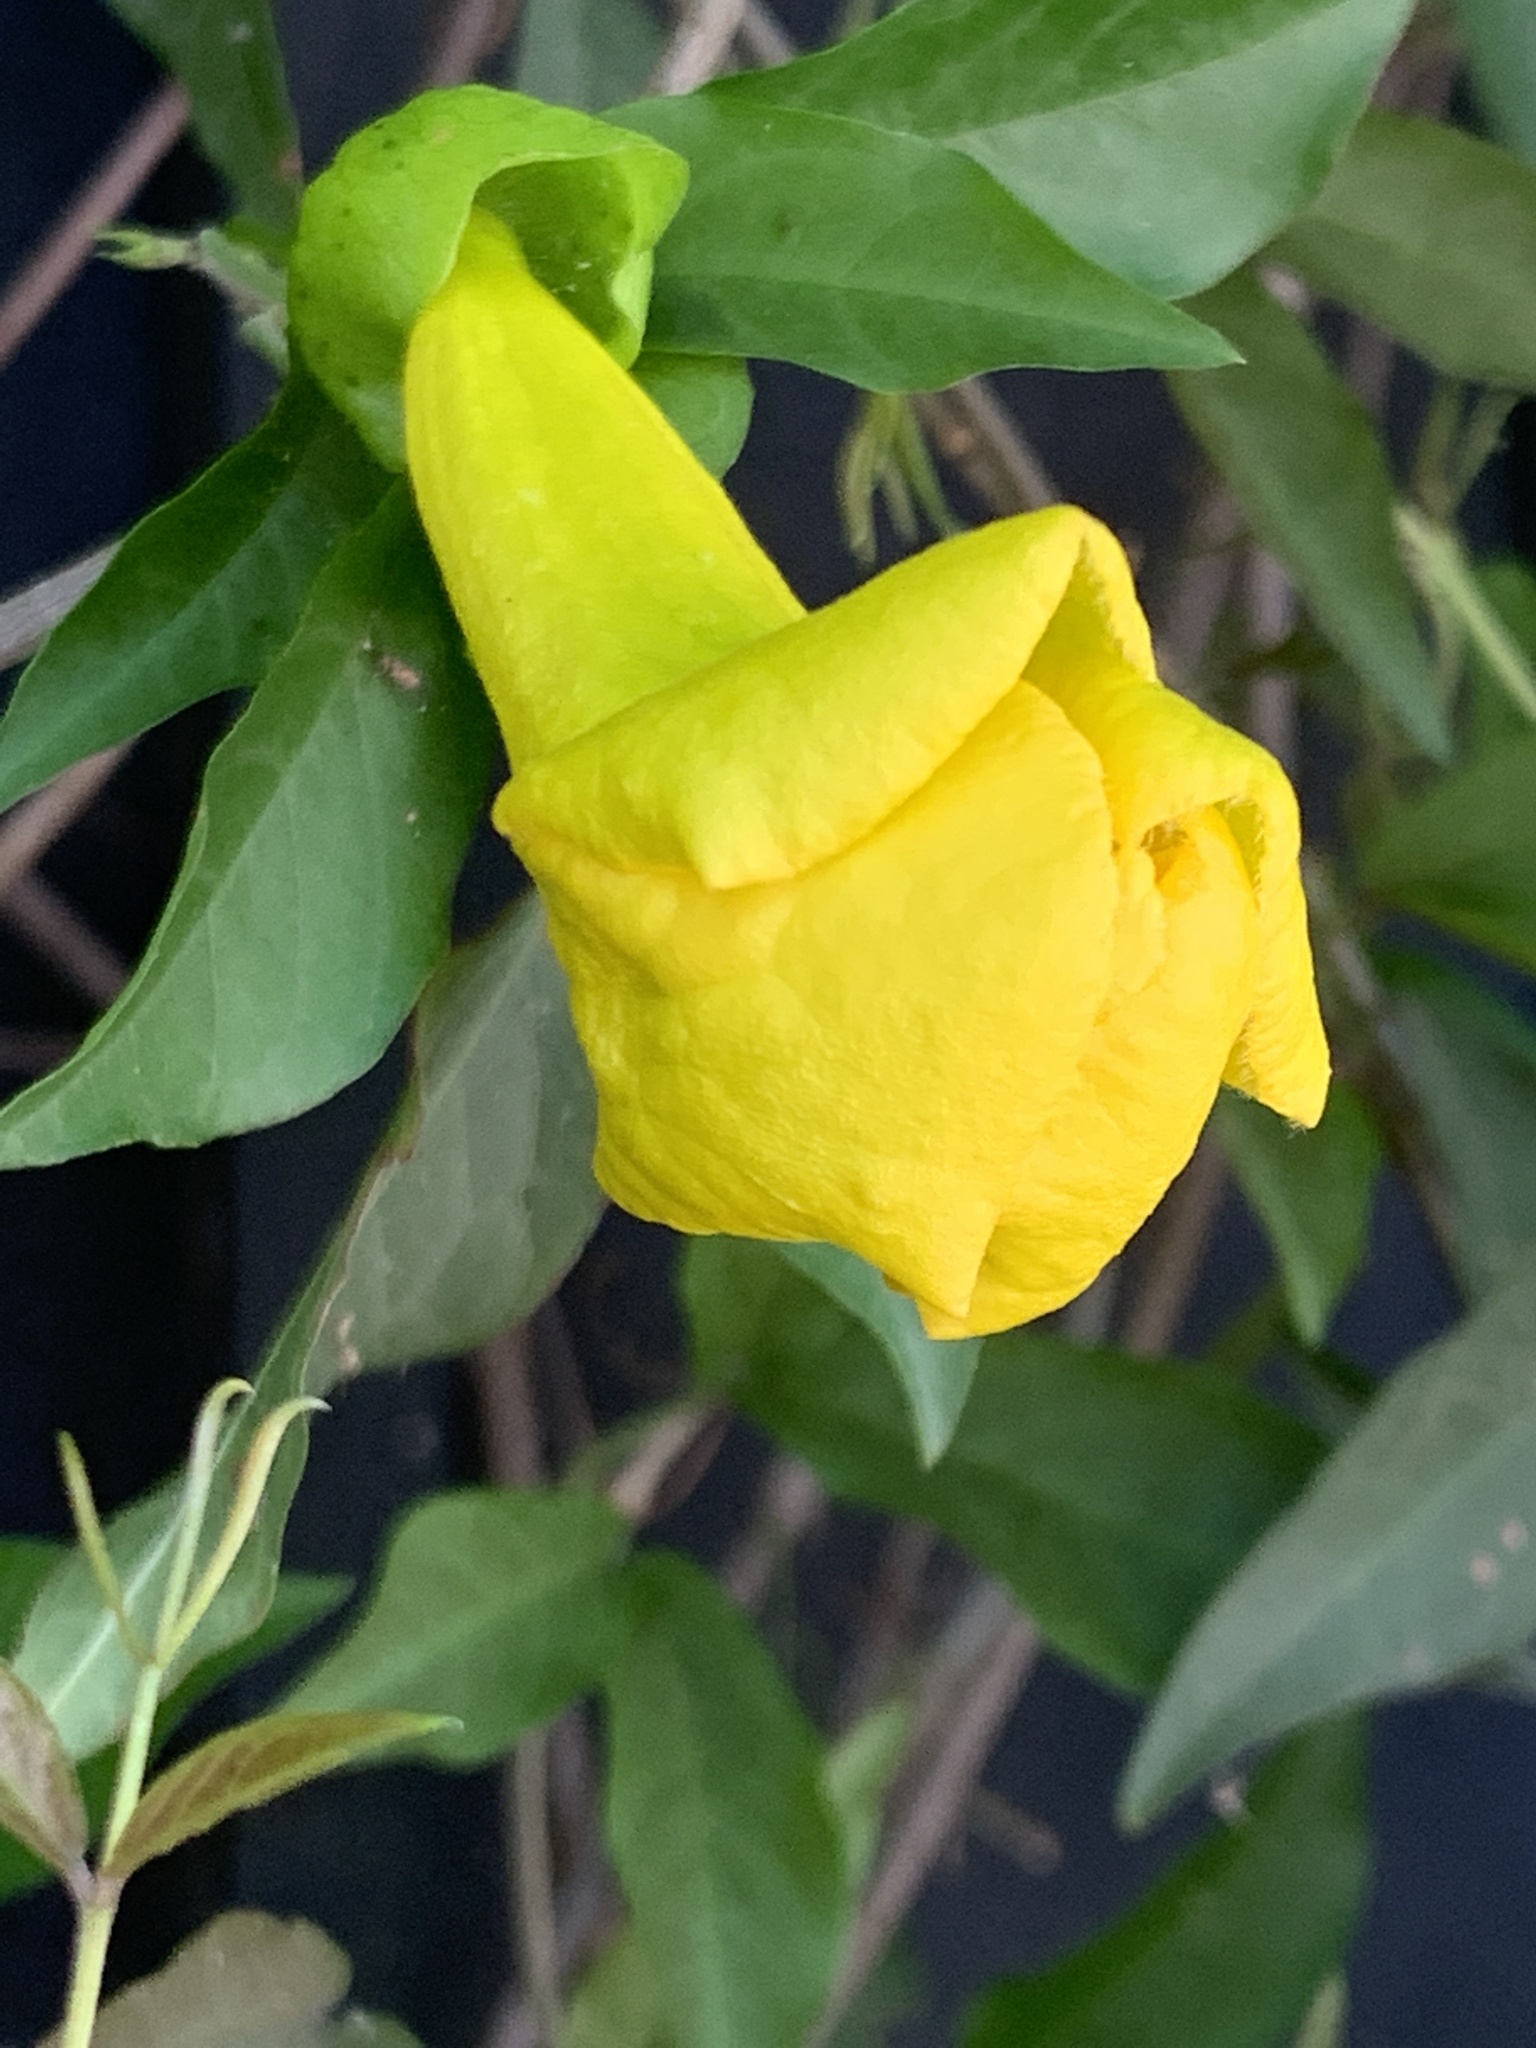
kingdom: Plantae
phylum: Tracheophyta
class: Magnoliopsida
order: Lamiales
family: Bignoniaceae
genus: Dolichandra
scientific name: Dolichandra unguis-cati
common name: Catclaw vine
